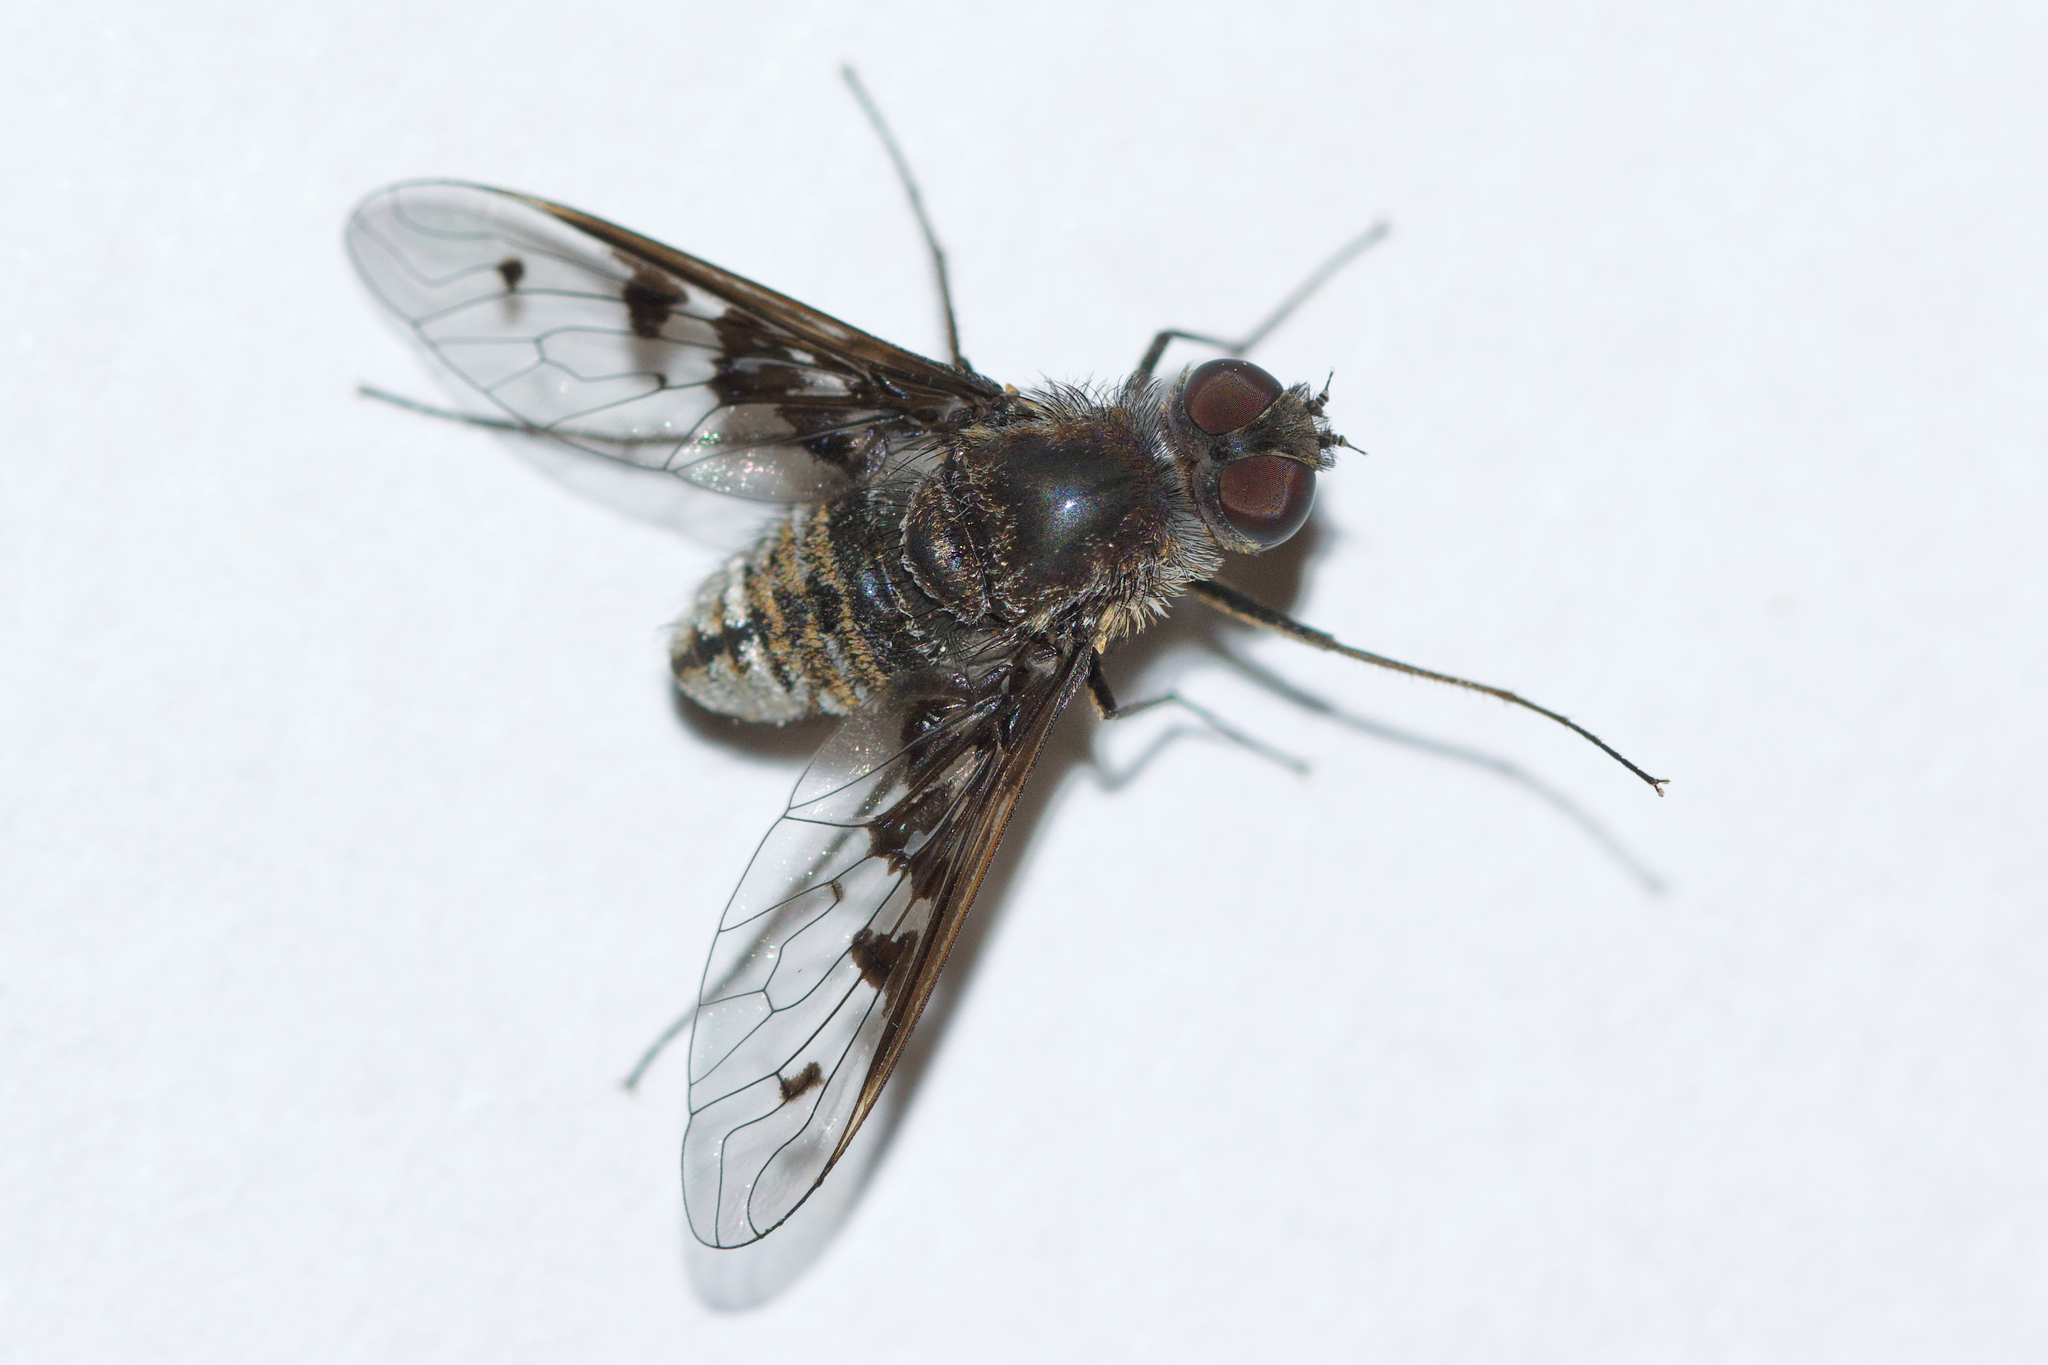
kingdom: Animalia
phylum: Arthropoda
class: Insecta
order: Diptera
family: Bombyliidae
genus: Anthrax
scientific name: Anthrax albofasciatus
